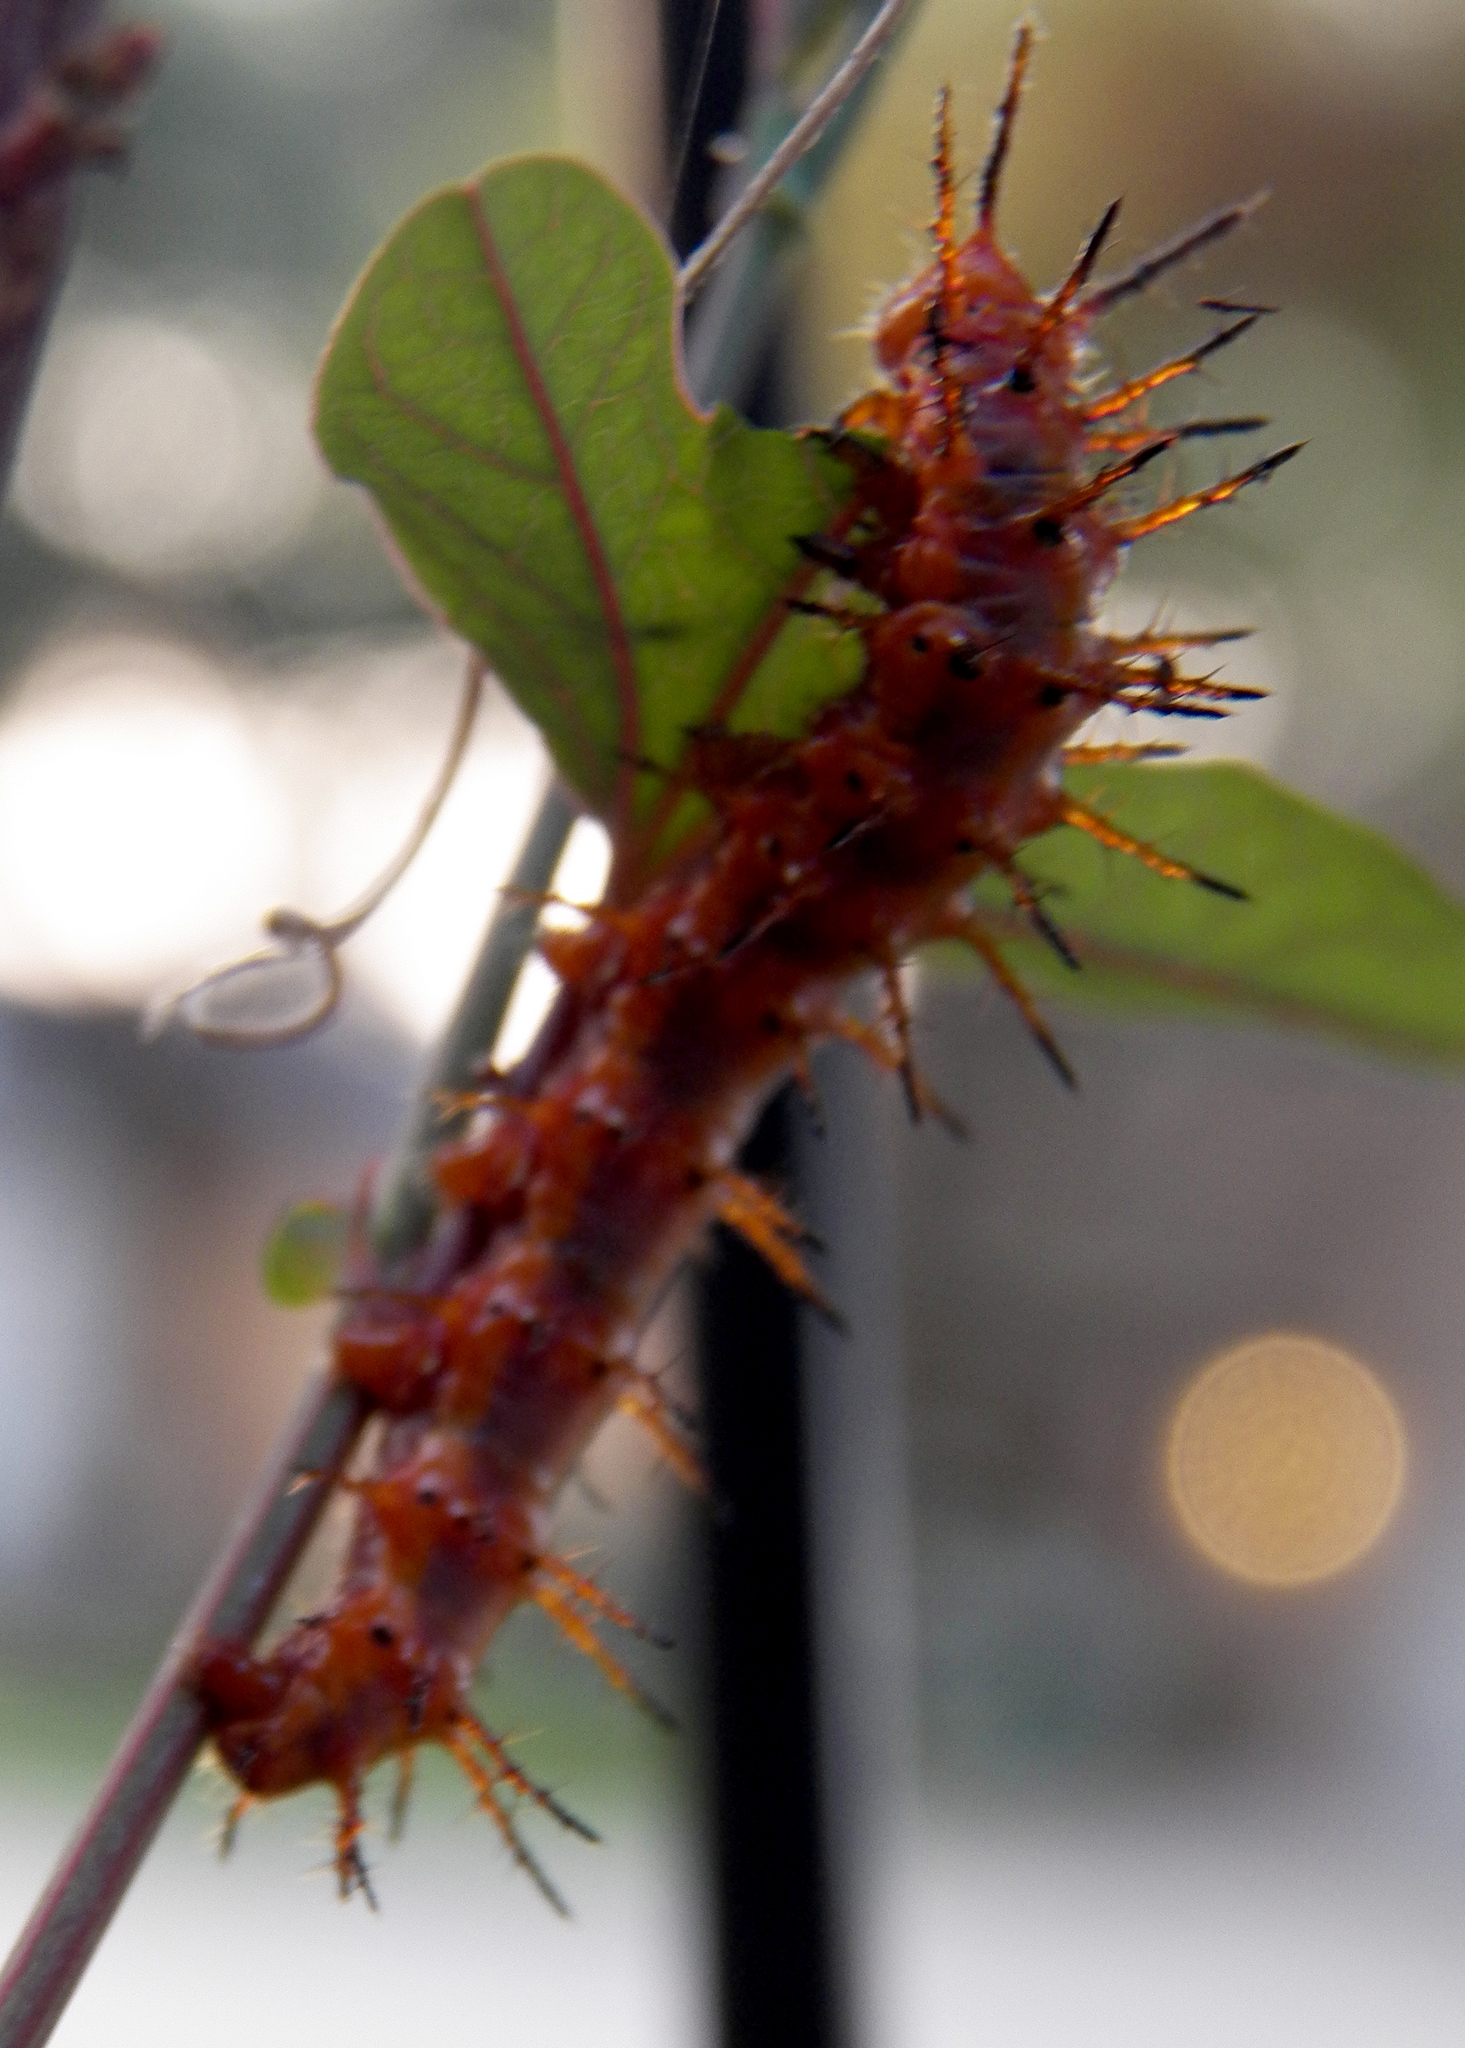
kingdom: Animalia
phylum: Arthropoda
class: Insecta
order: Lepidoptera
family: Nymphalidae
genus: Dione
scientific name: Dione vanillae
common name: Gulf fritillary
